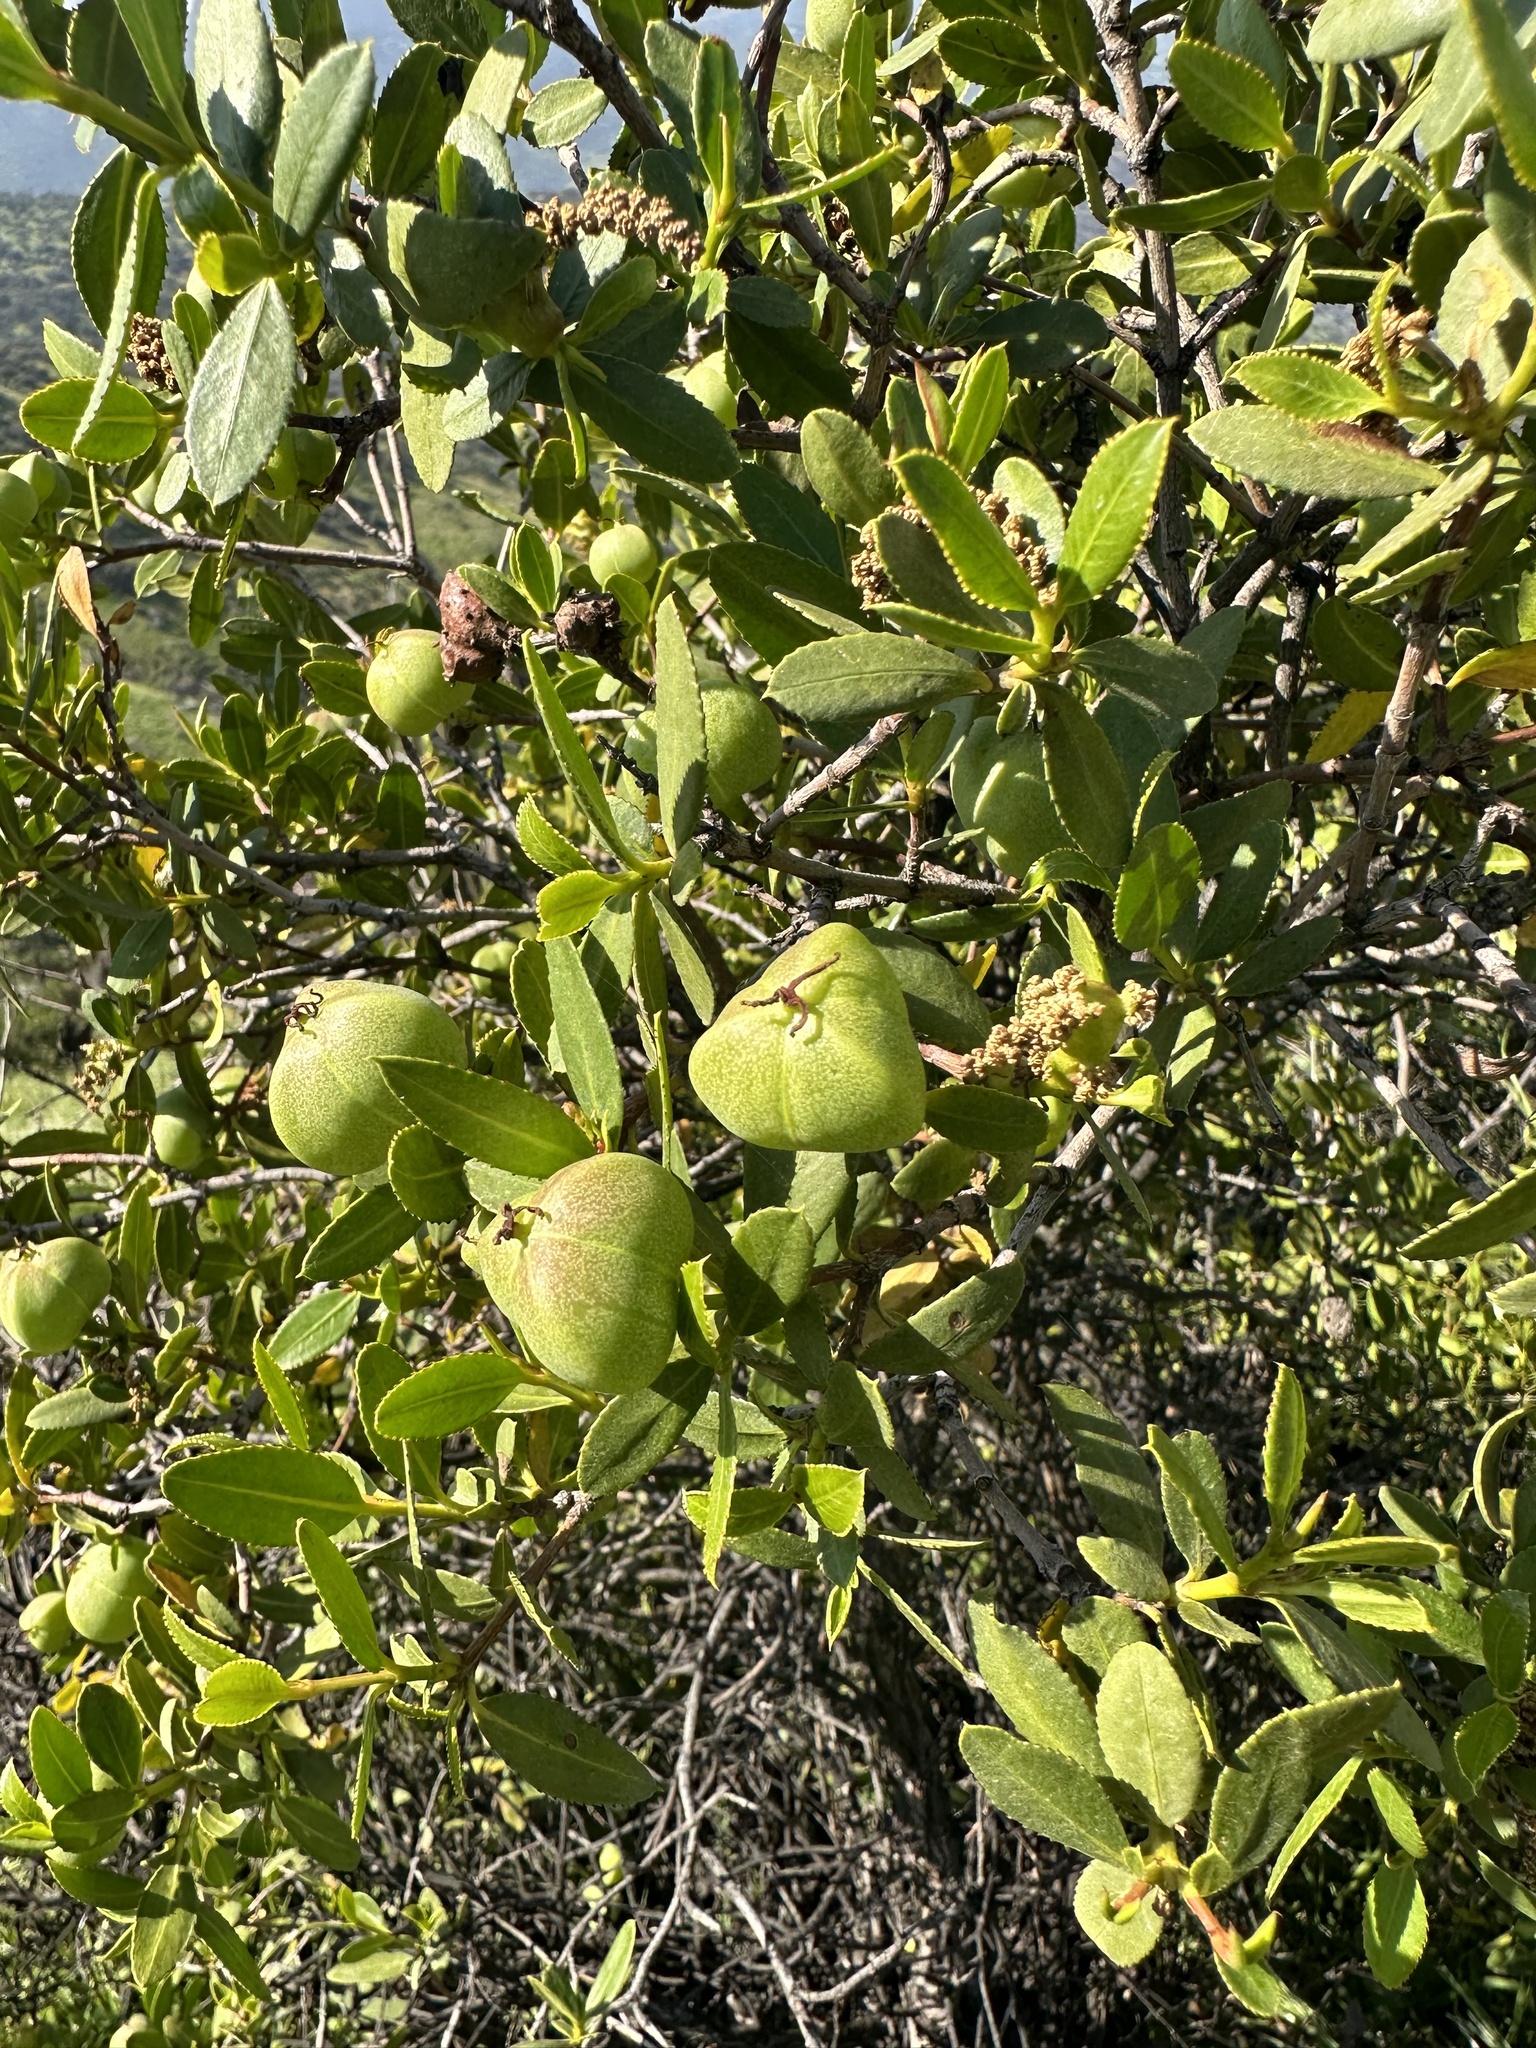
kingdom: Plantae
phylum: Tracheophyta
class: Magnoliopsida
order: Malpighiales
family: Euphorbiaceae
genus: Colliguaja
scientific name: Colliguaja odorifera
